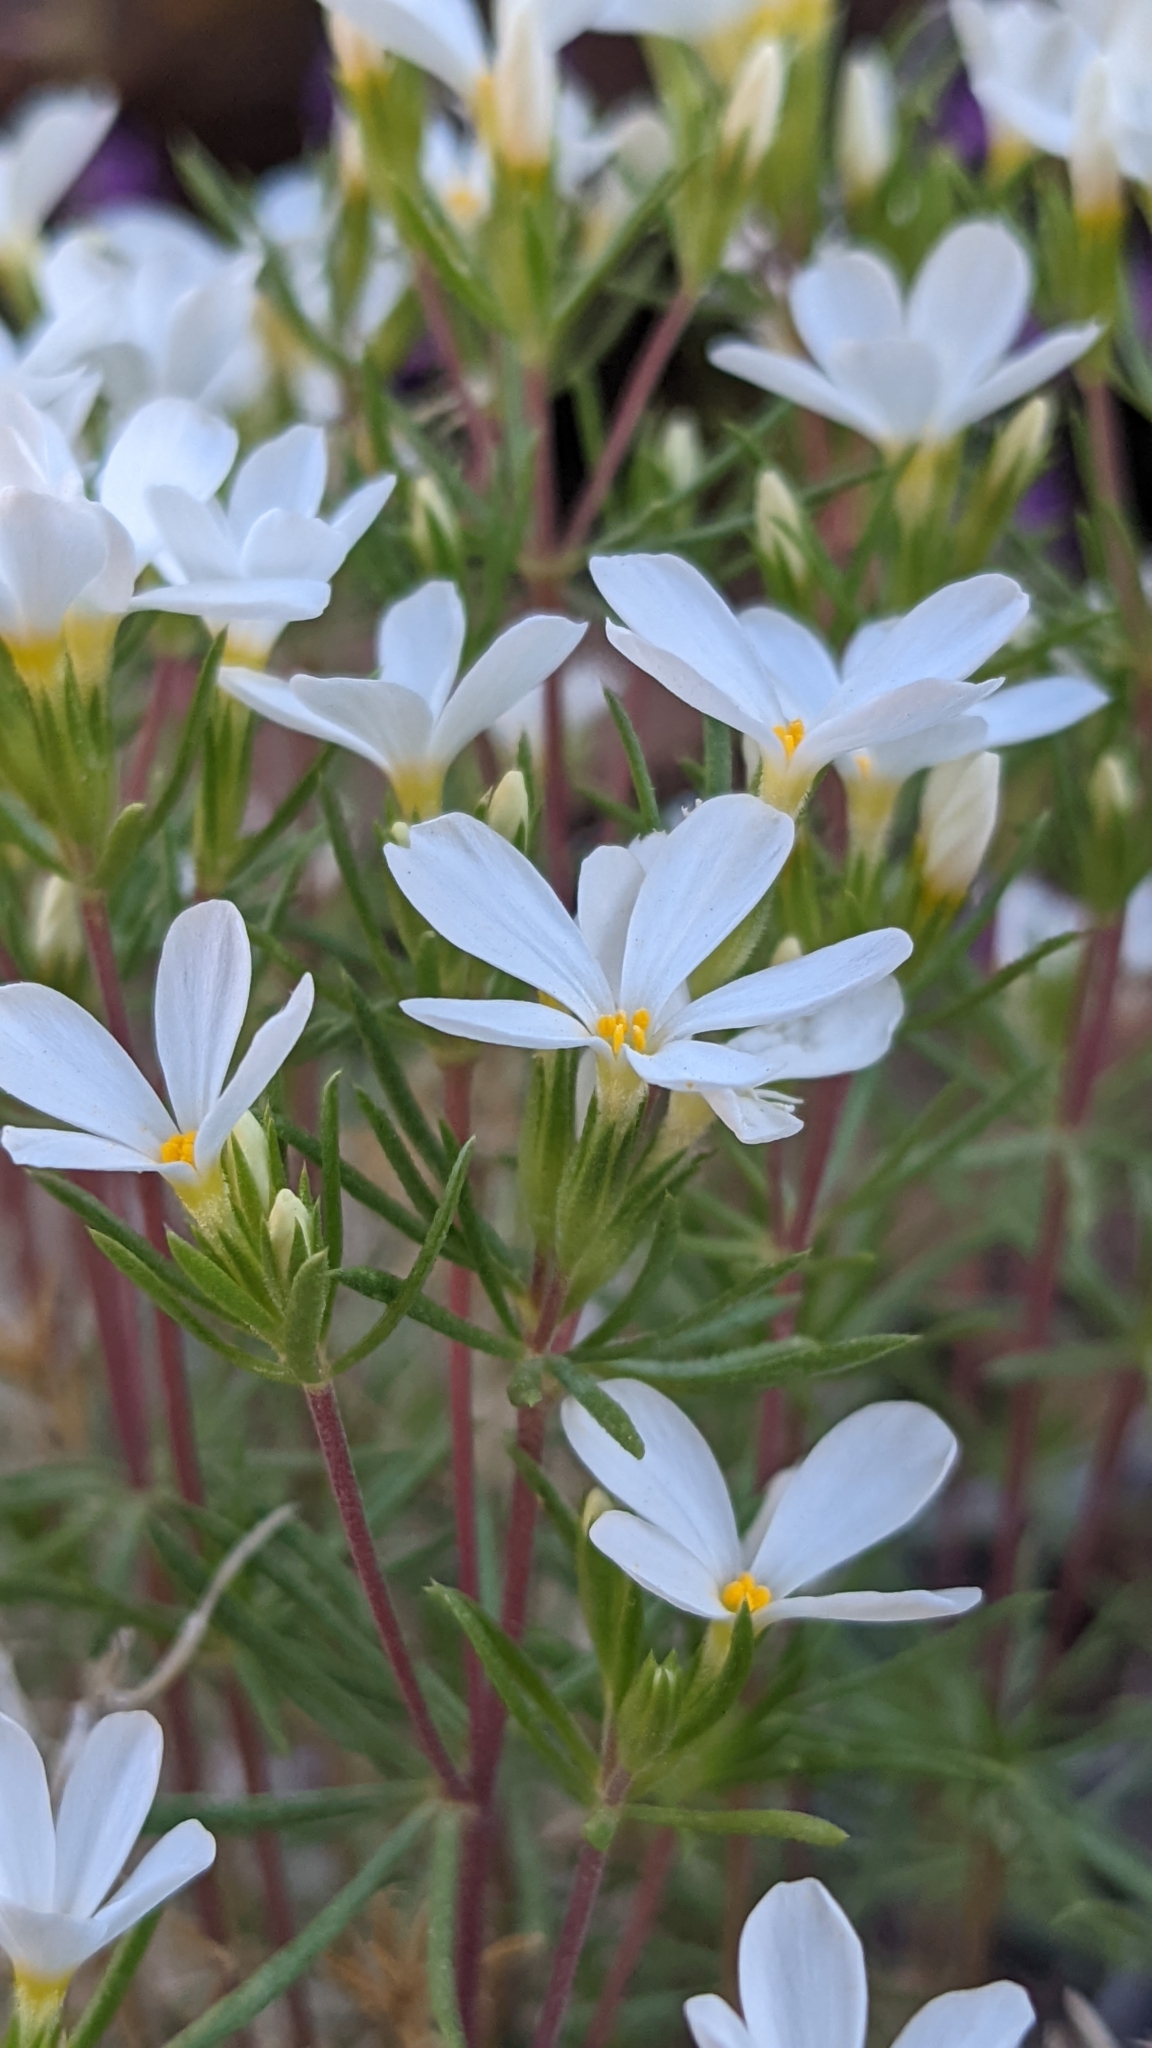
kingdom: Plantae
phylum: Tracheophyta
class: Magnoliopsida
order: Ericales
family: Polemoniaceae
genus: Leptosiphon
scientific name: Leptosiphon nuttallii
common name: Nuttall's linanthus
